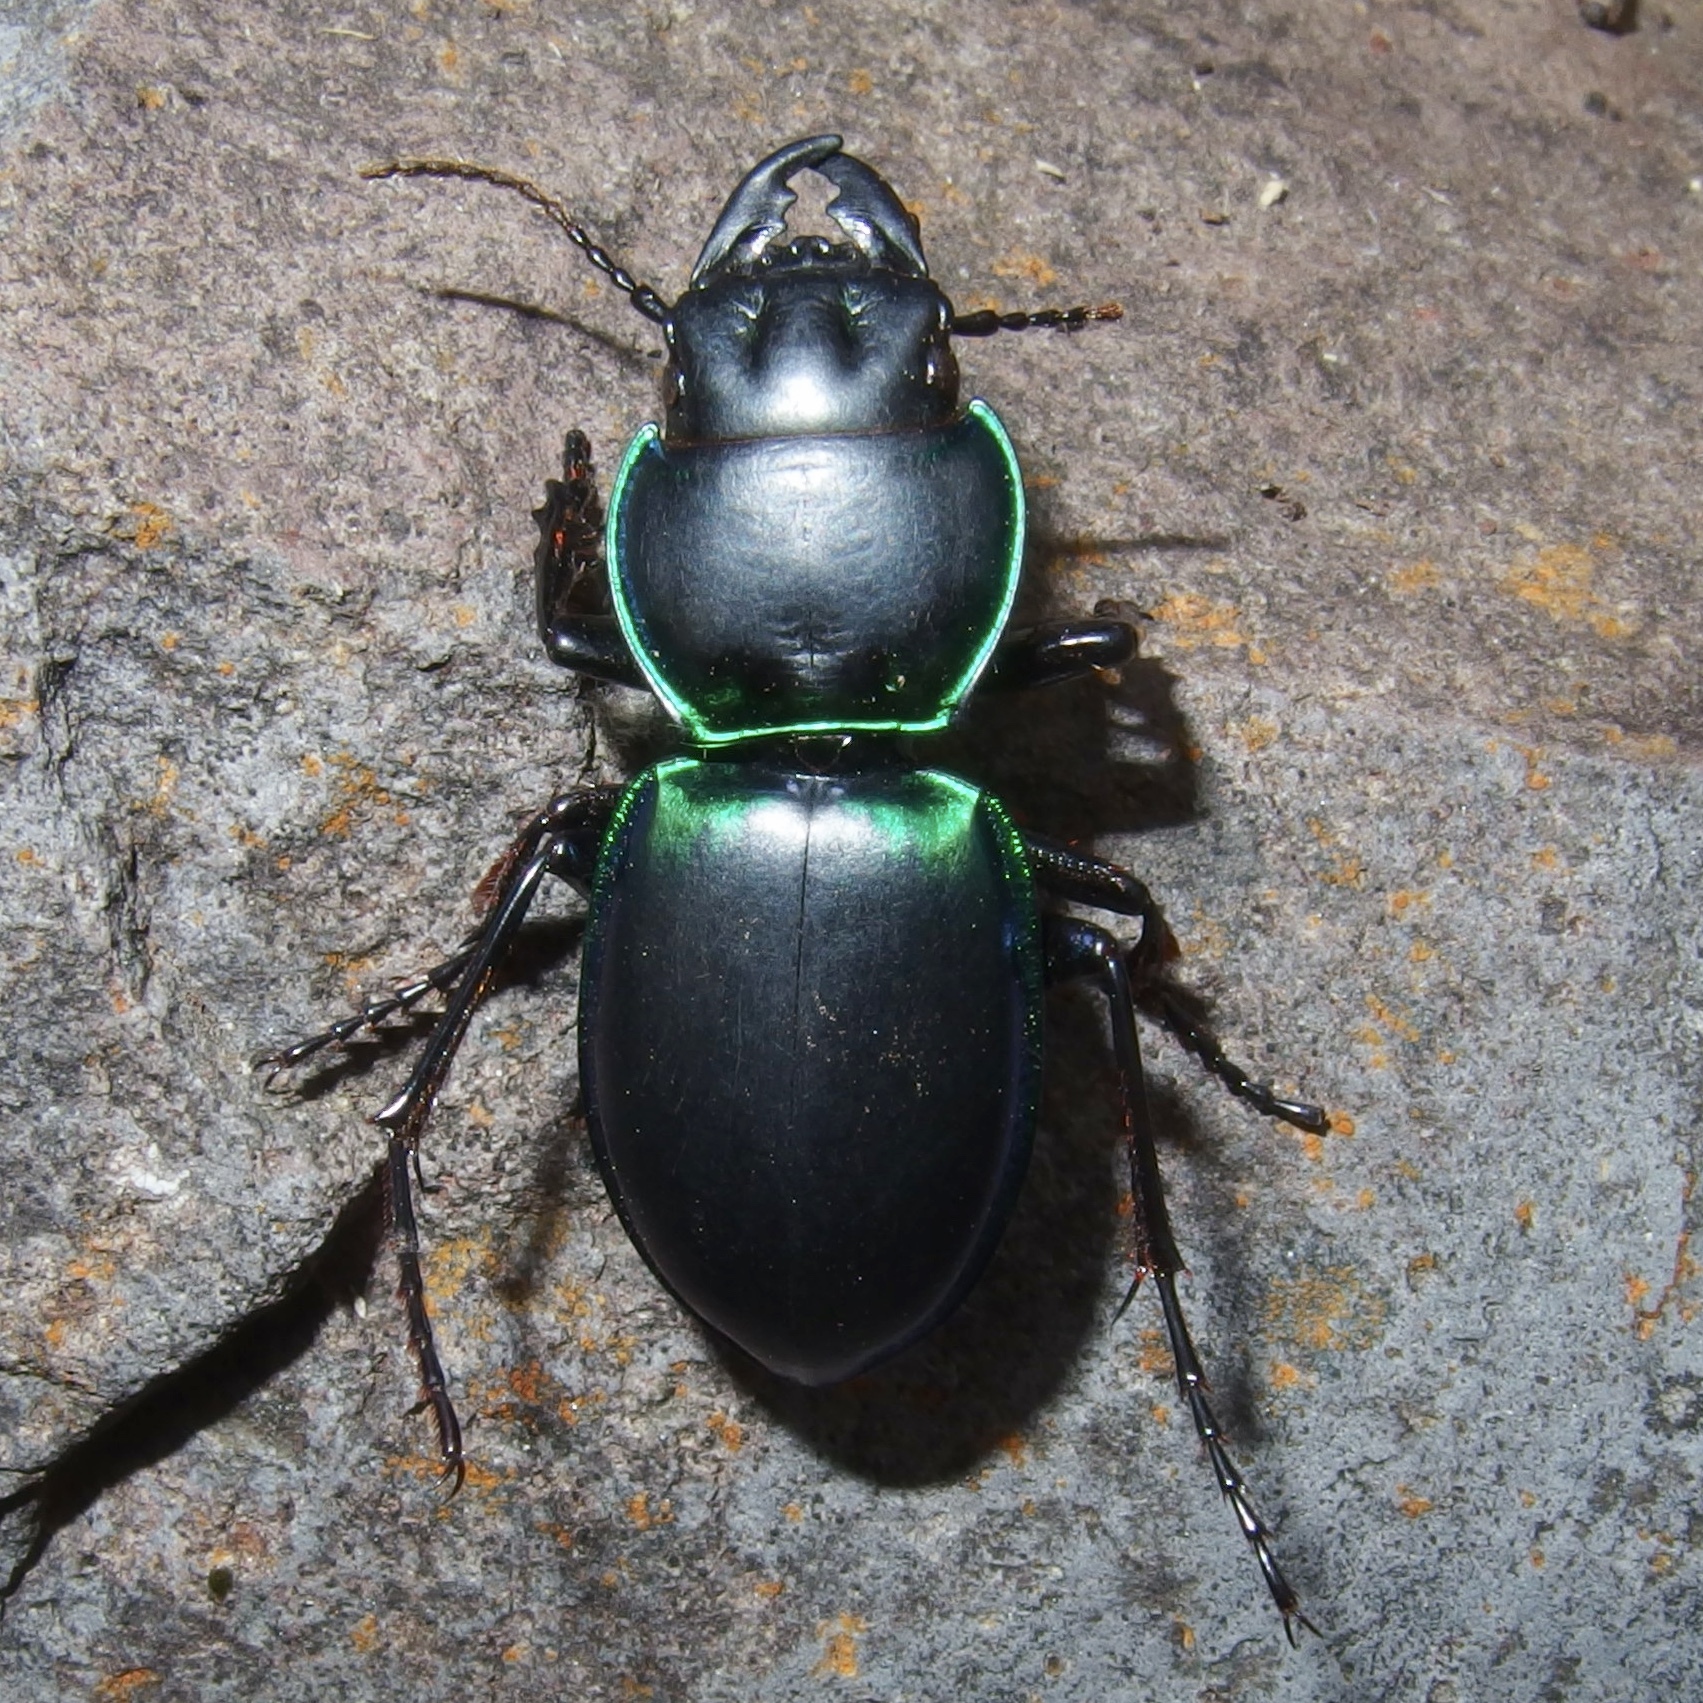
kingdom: Animalia
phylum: Arthropoda
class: Insecta
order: Coleoptera
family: Carabidae
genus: Pasimachus
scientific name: Pasimachus viridans
